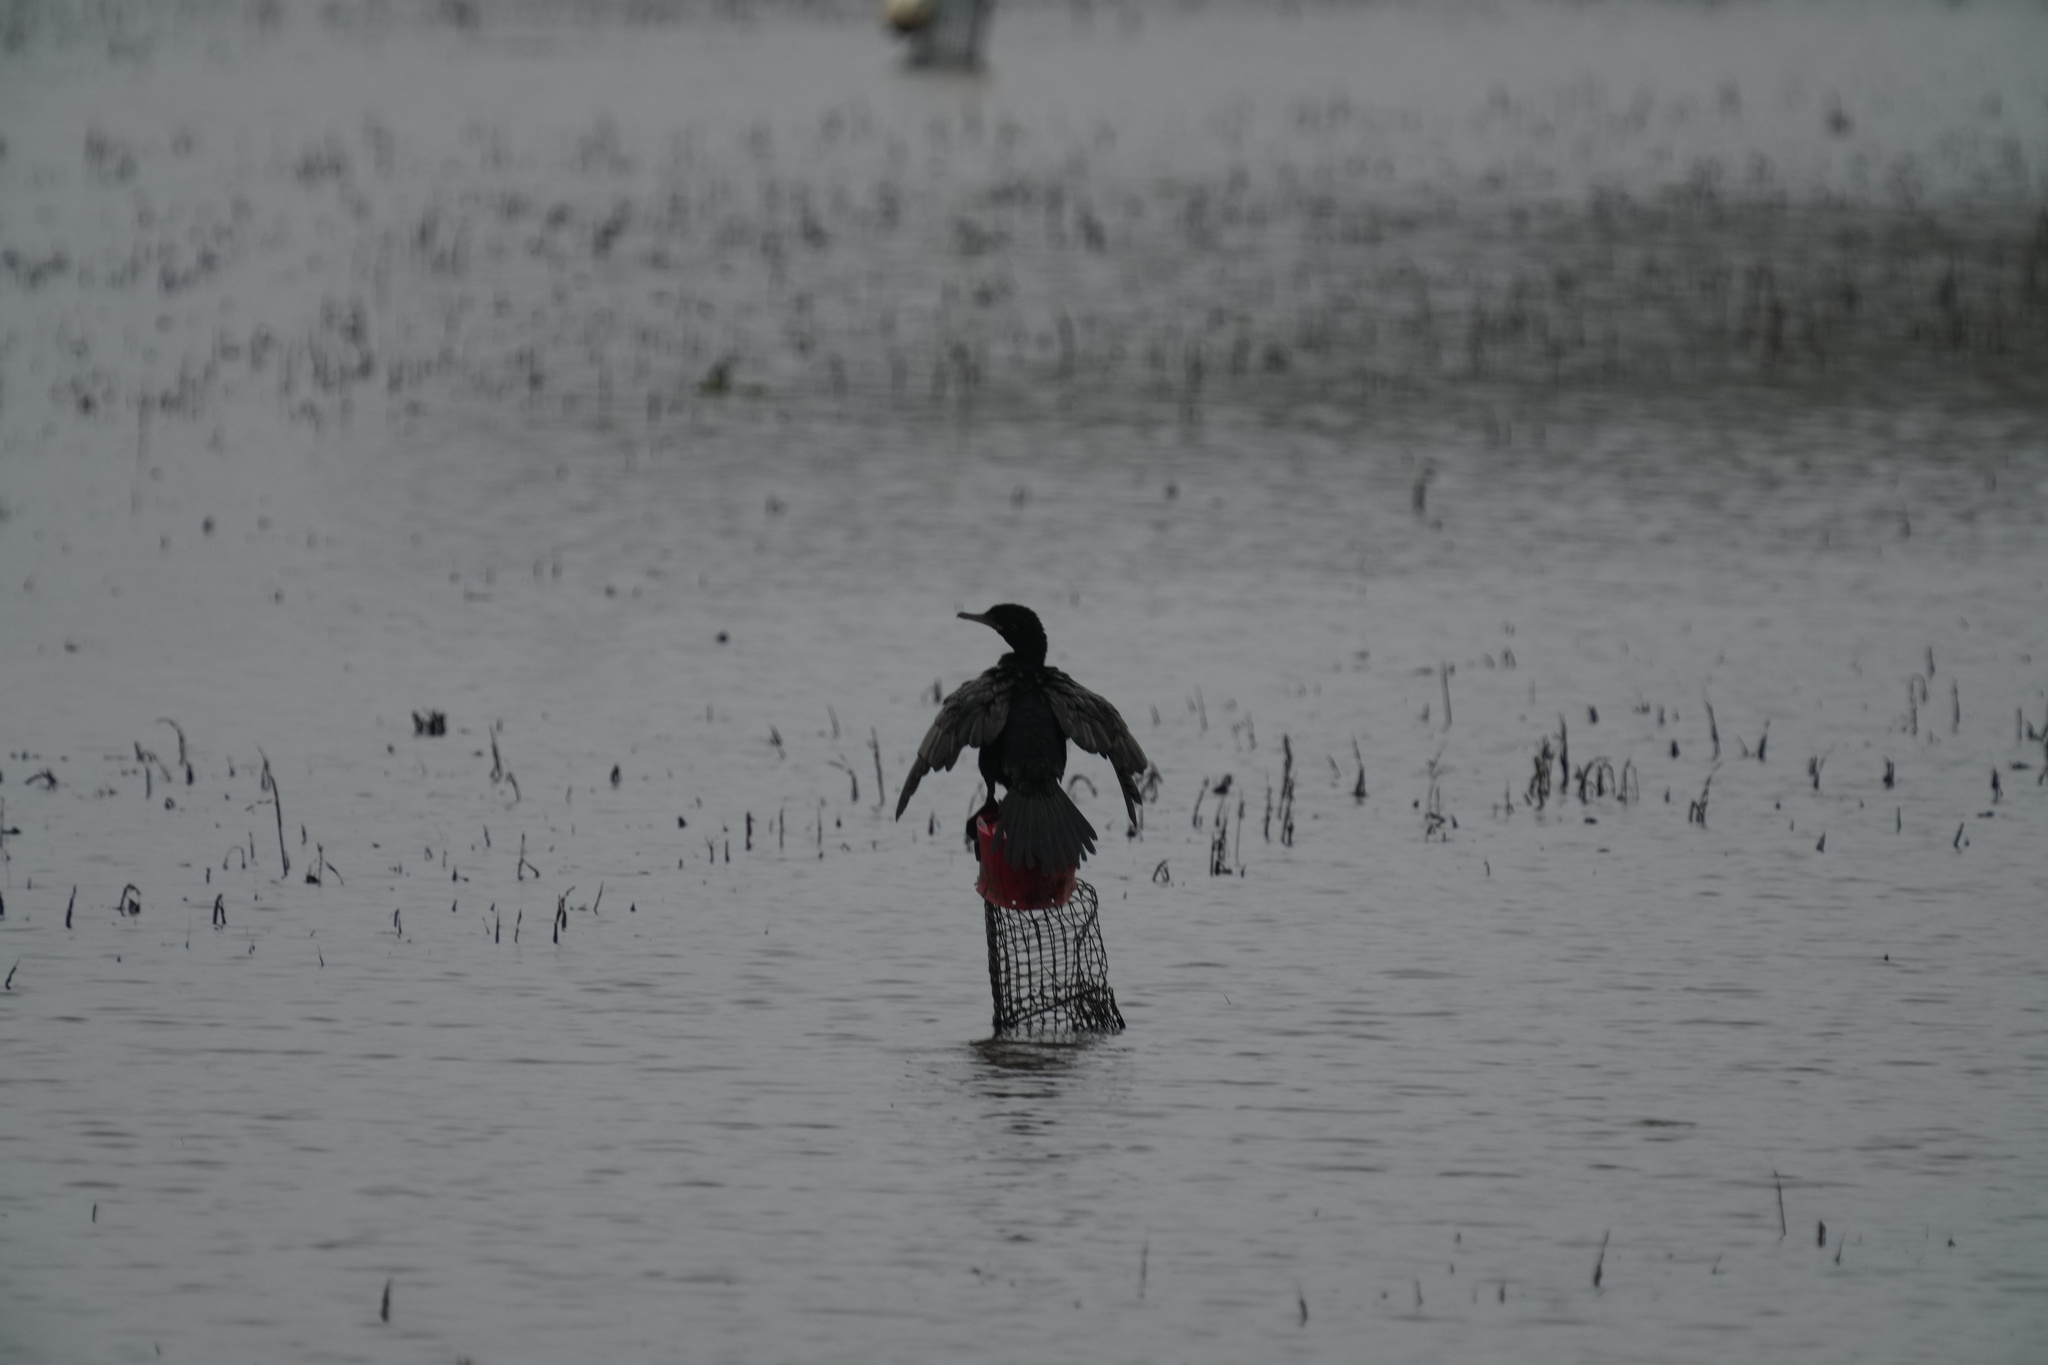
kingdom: Animalia
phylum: Chordata
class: Aves
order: Suliformes
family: Phalacrocoracidae
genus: Phalacrocorax
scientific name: Phalacrocorax brasilianus
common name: Neotropic cormorant
